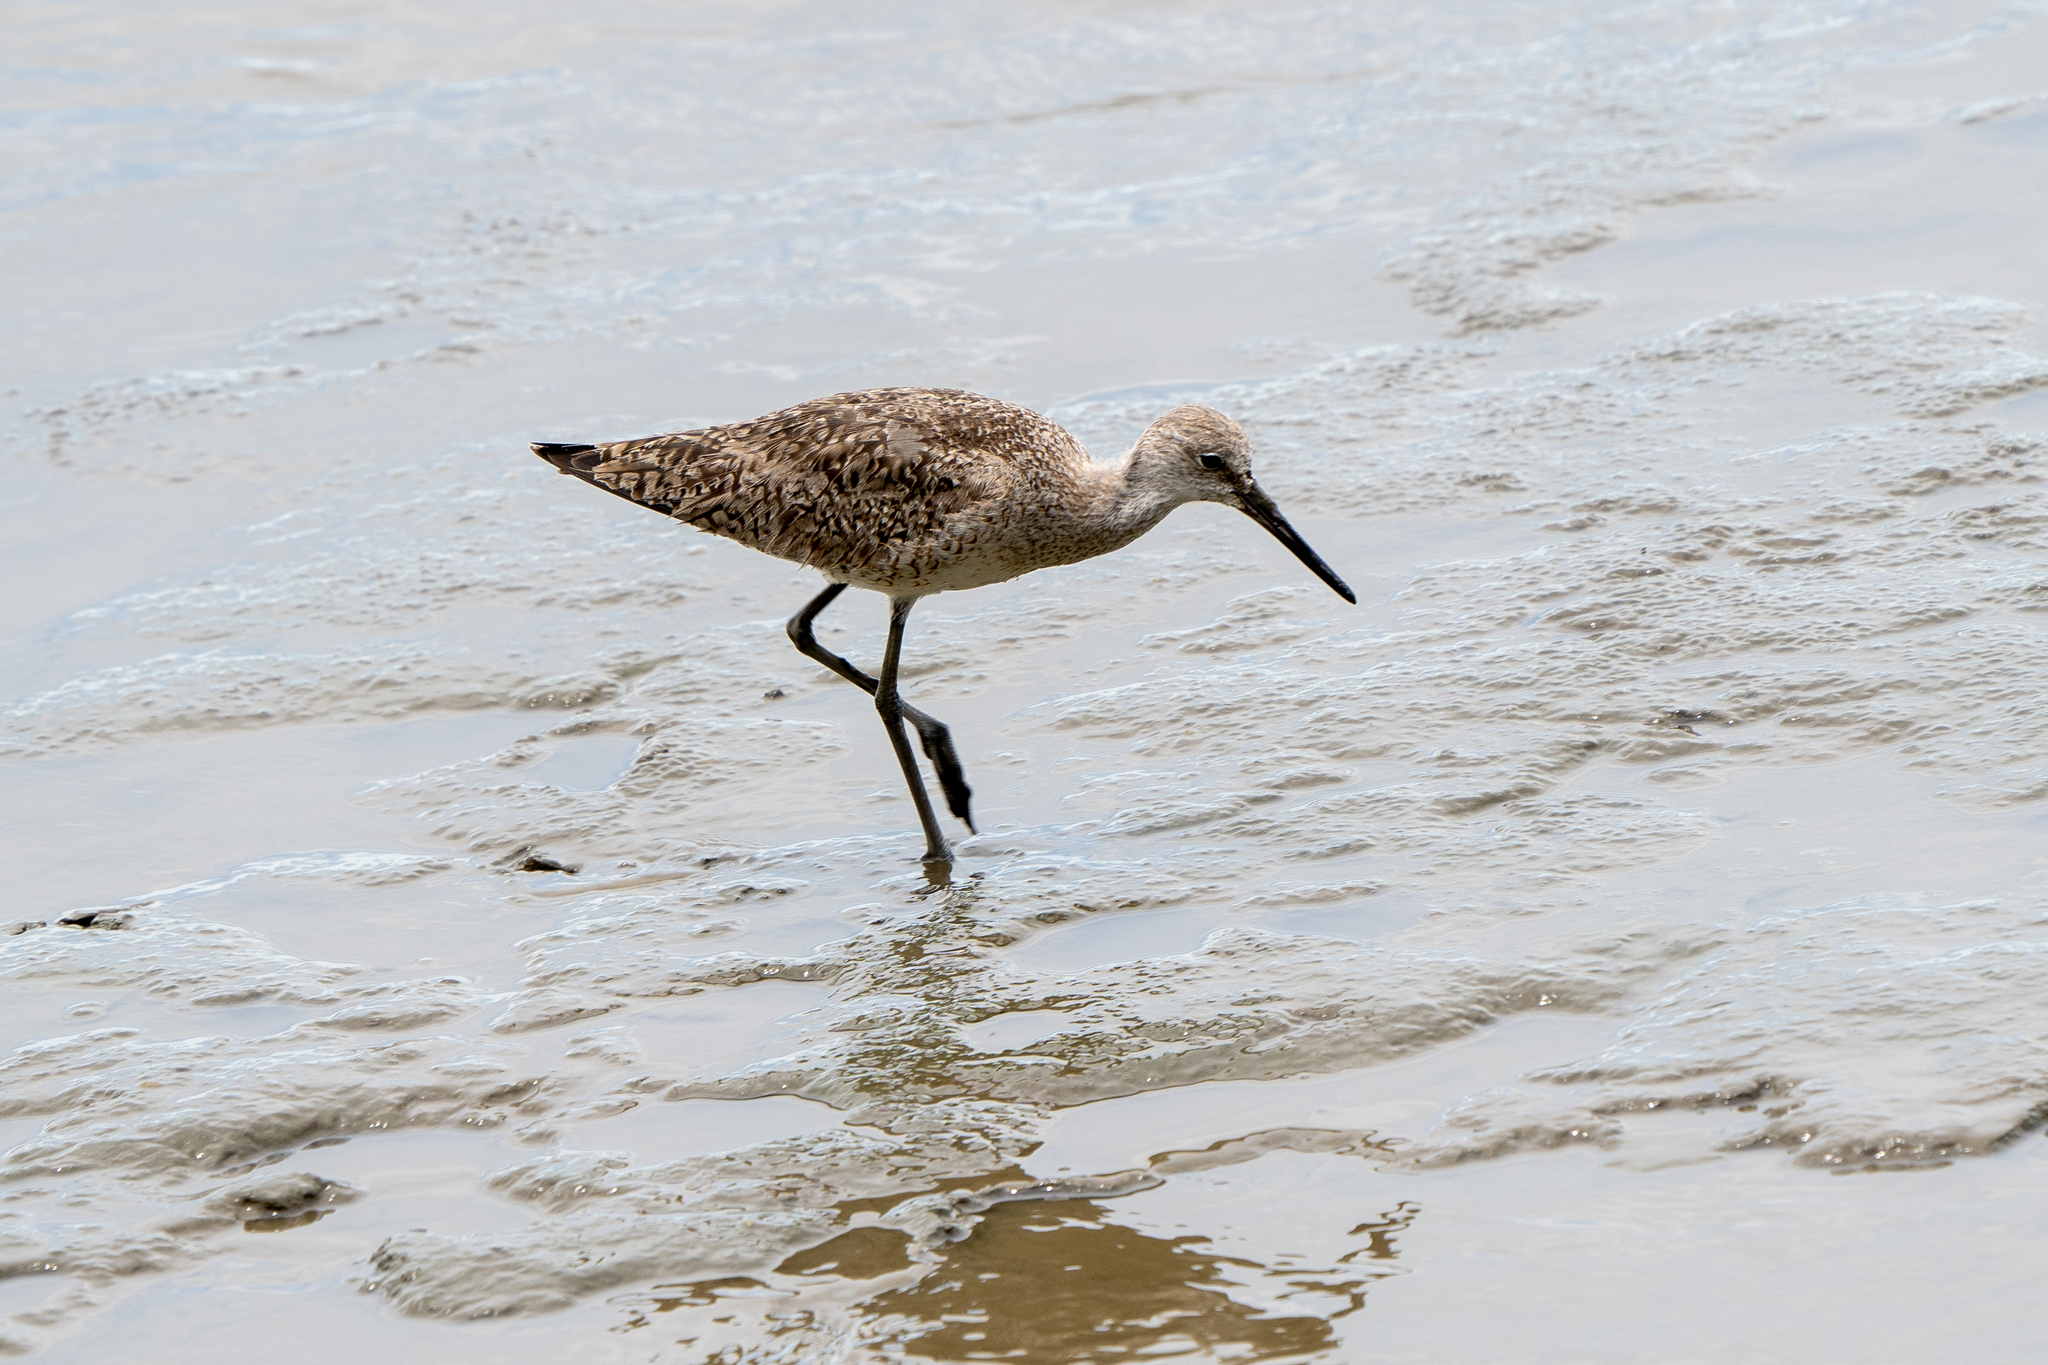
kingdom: Animalia
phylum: Chordata
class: Aves
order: Charadriiformes
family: Scolopacidae
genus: Tringa
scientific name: Tringa semipalmata
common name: Willet
